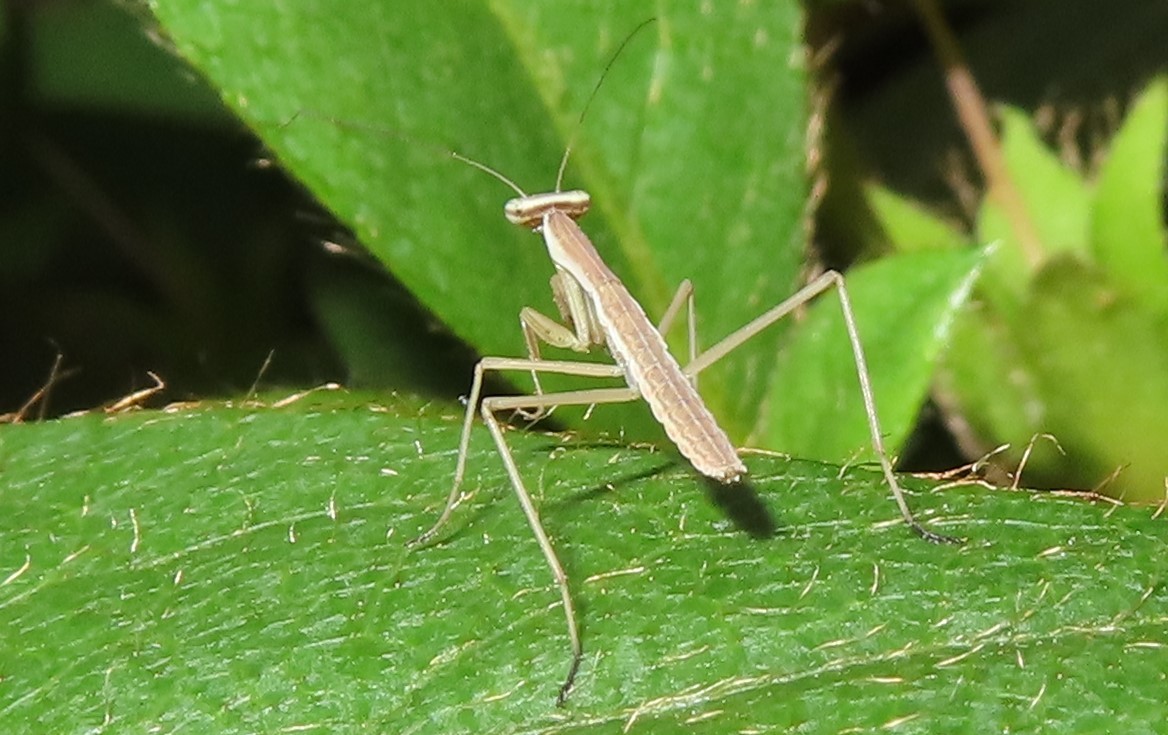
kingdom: Animalia
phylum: Arthropoda
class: Insecta
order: Mantodea
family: Mantidae
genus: Tenodera
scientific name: Tenodera sinensis
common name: Chinese mantis
